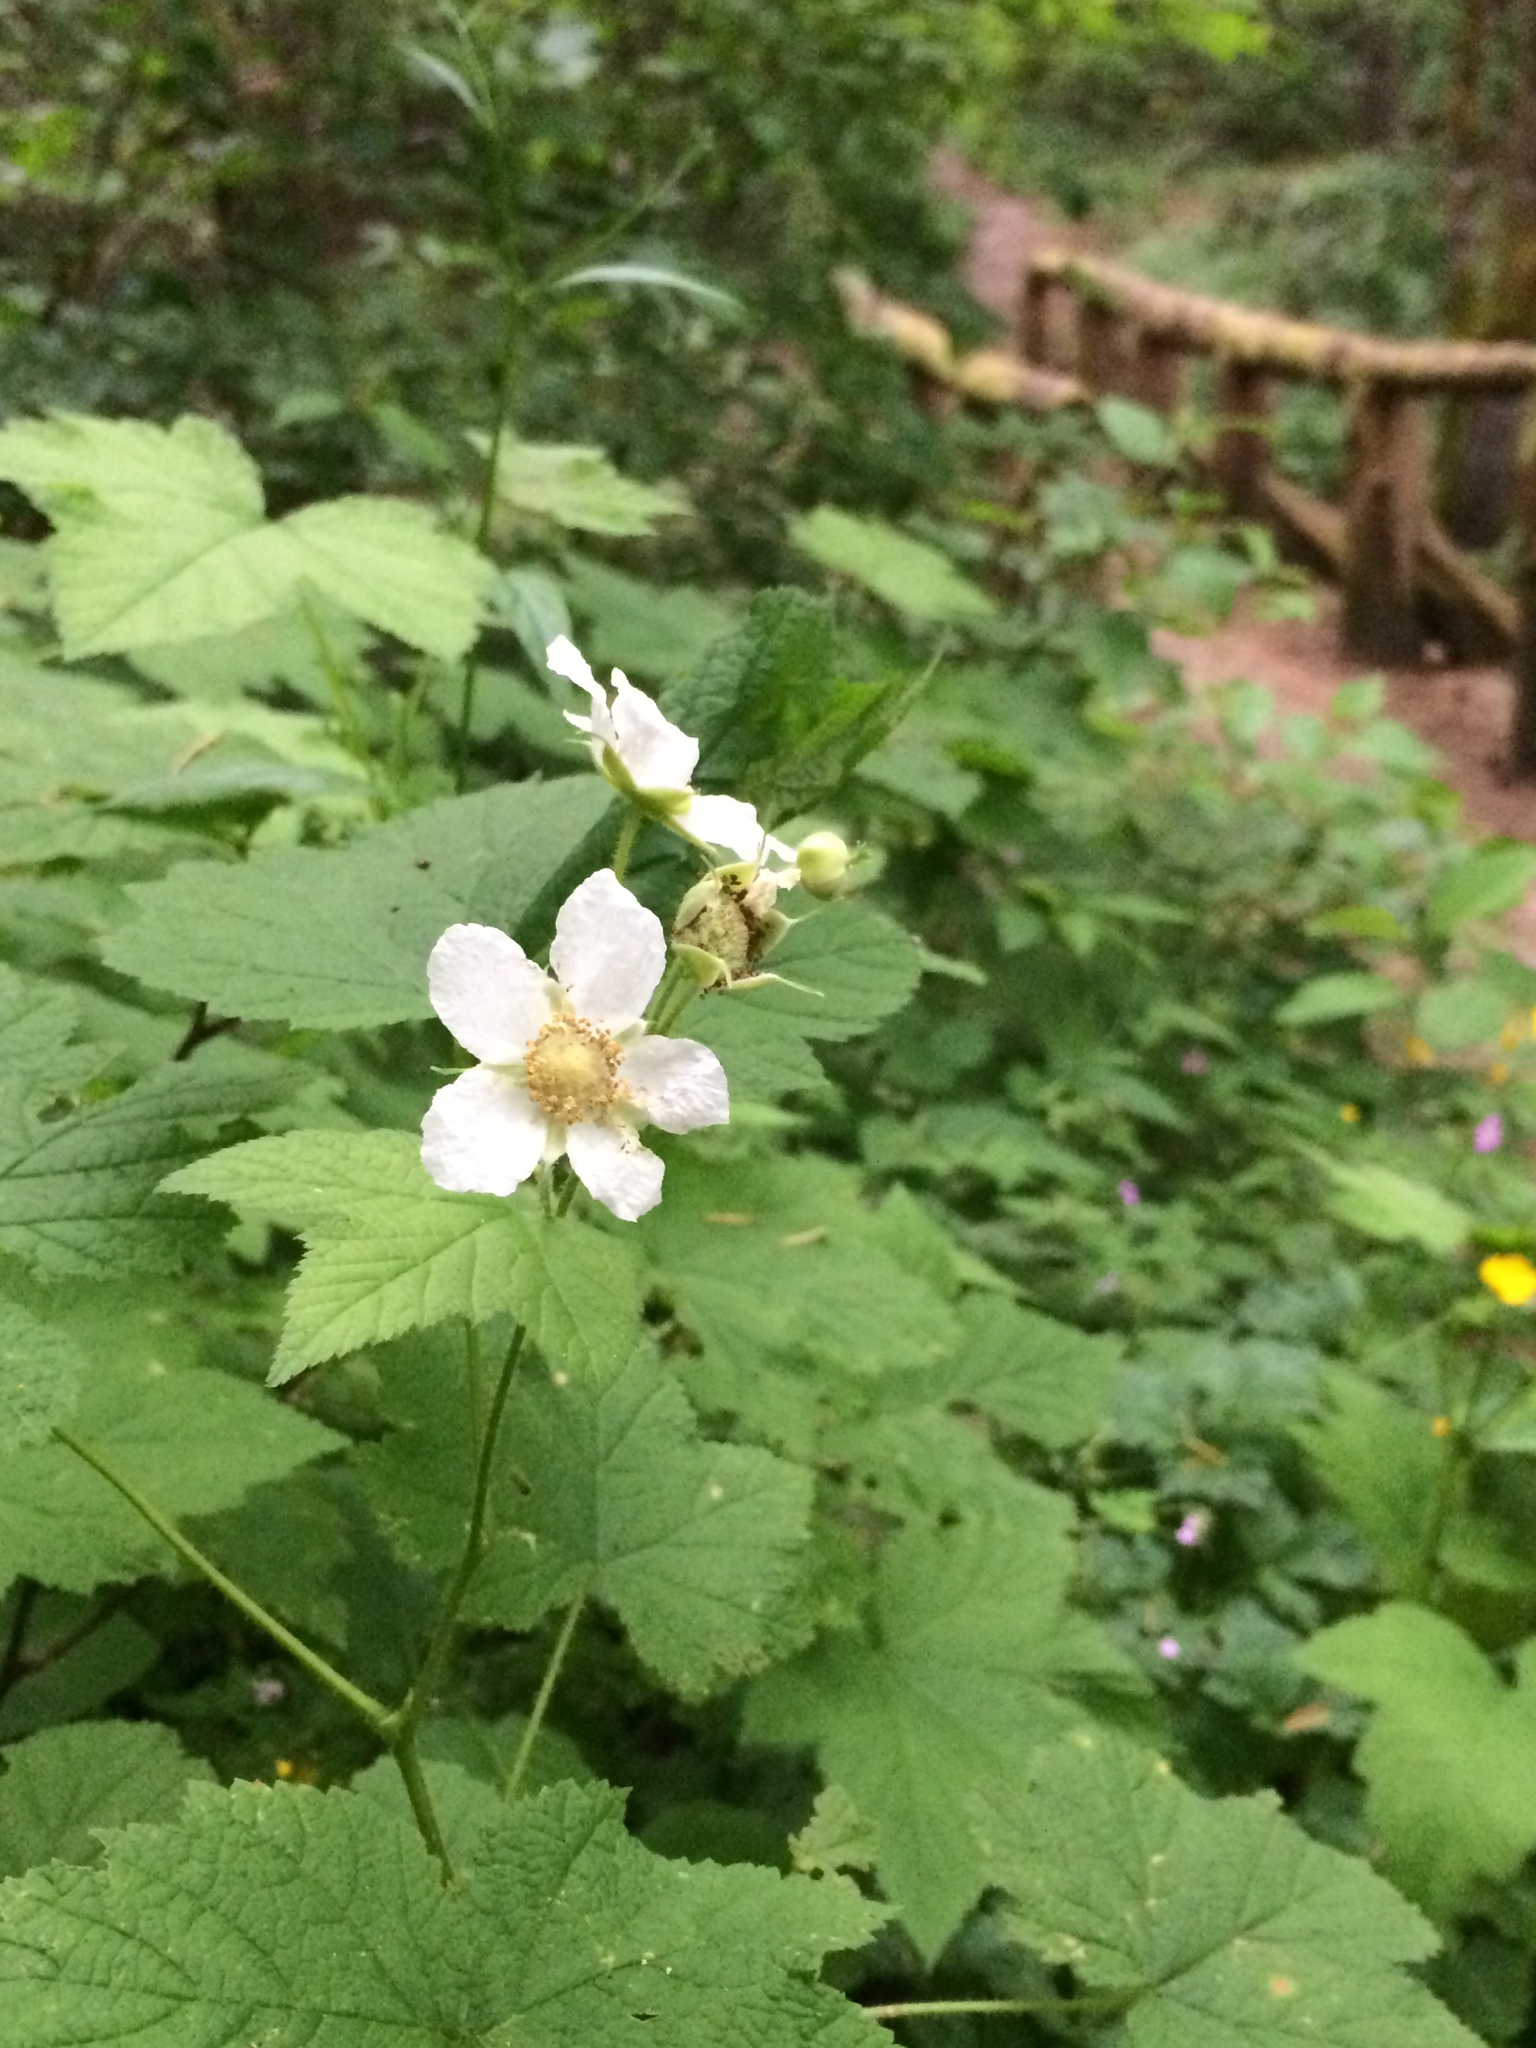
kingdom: Plantae
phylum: Tracheophyta
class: Magnoliopsida
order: Rosales
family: Rosaceae
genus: Rubus
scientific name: Rubus parviflorus
